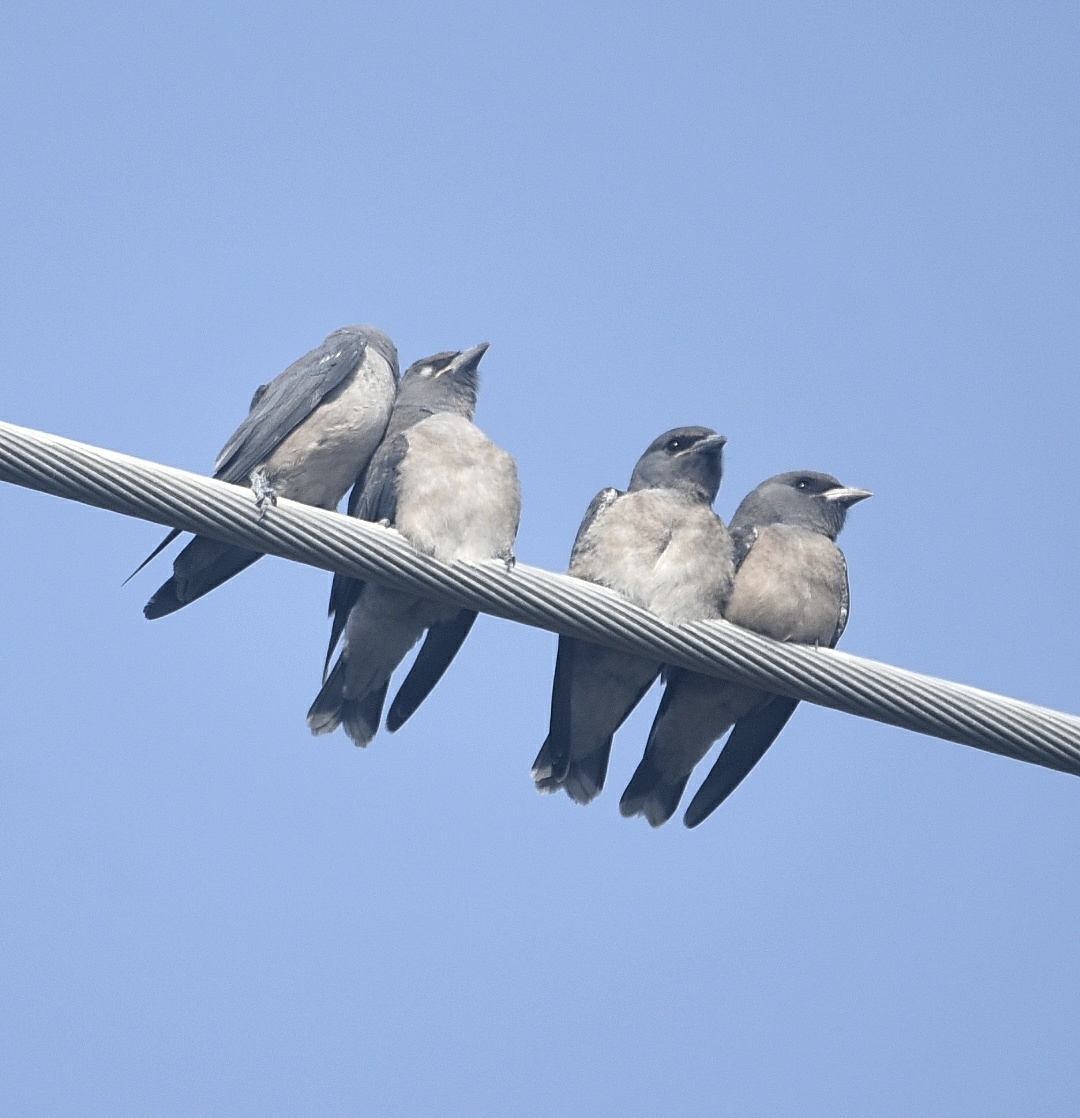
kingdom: Animalia
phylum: Chordata
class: Aves
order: Passeriformes
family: Artamidae
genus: Artamus
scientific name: Artamus fuscus
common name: Ashy woodswallow
